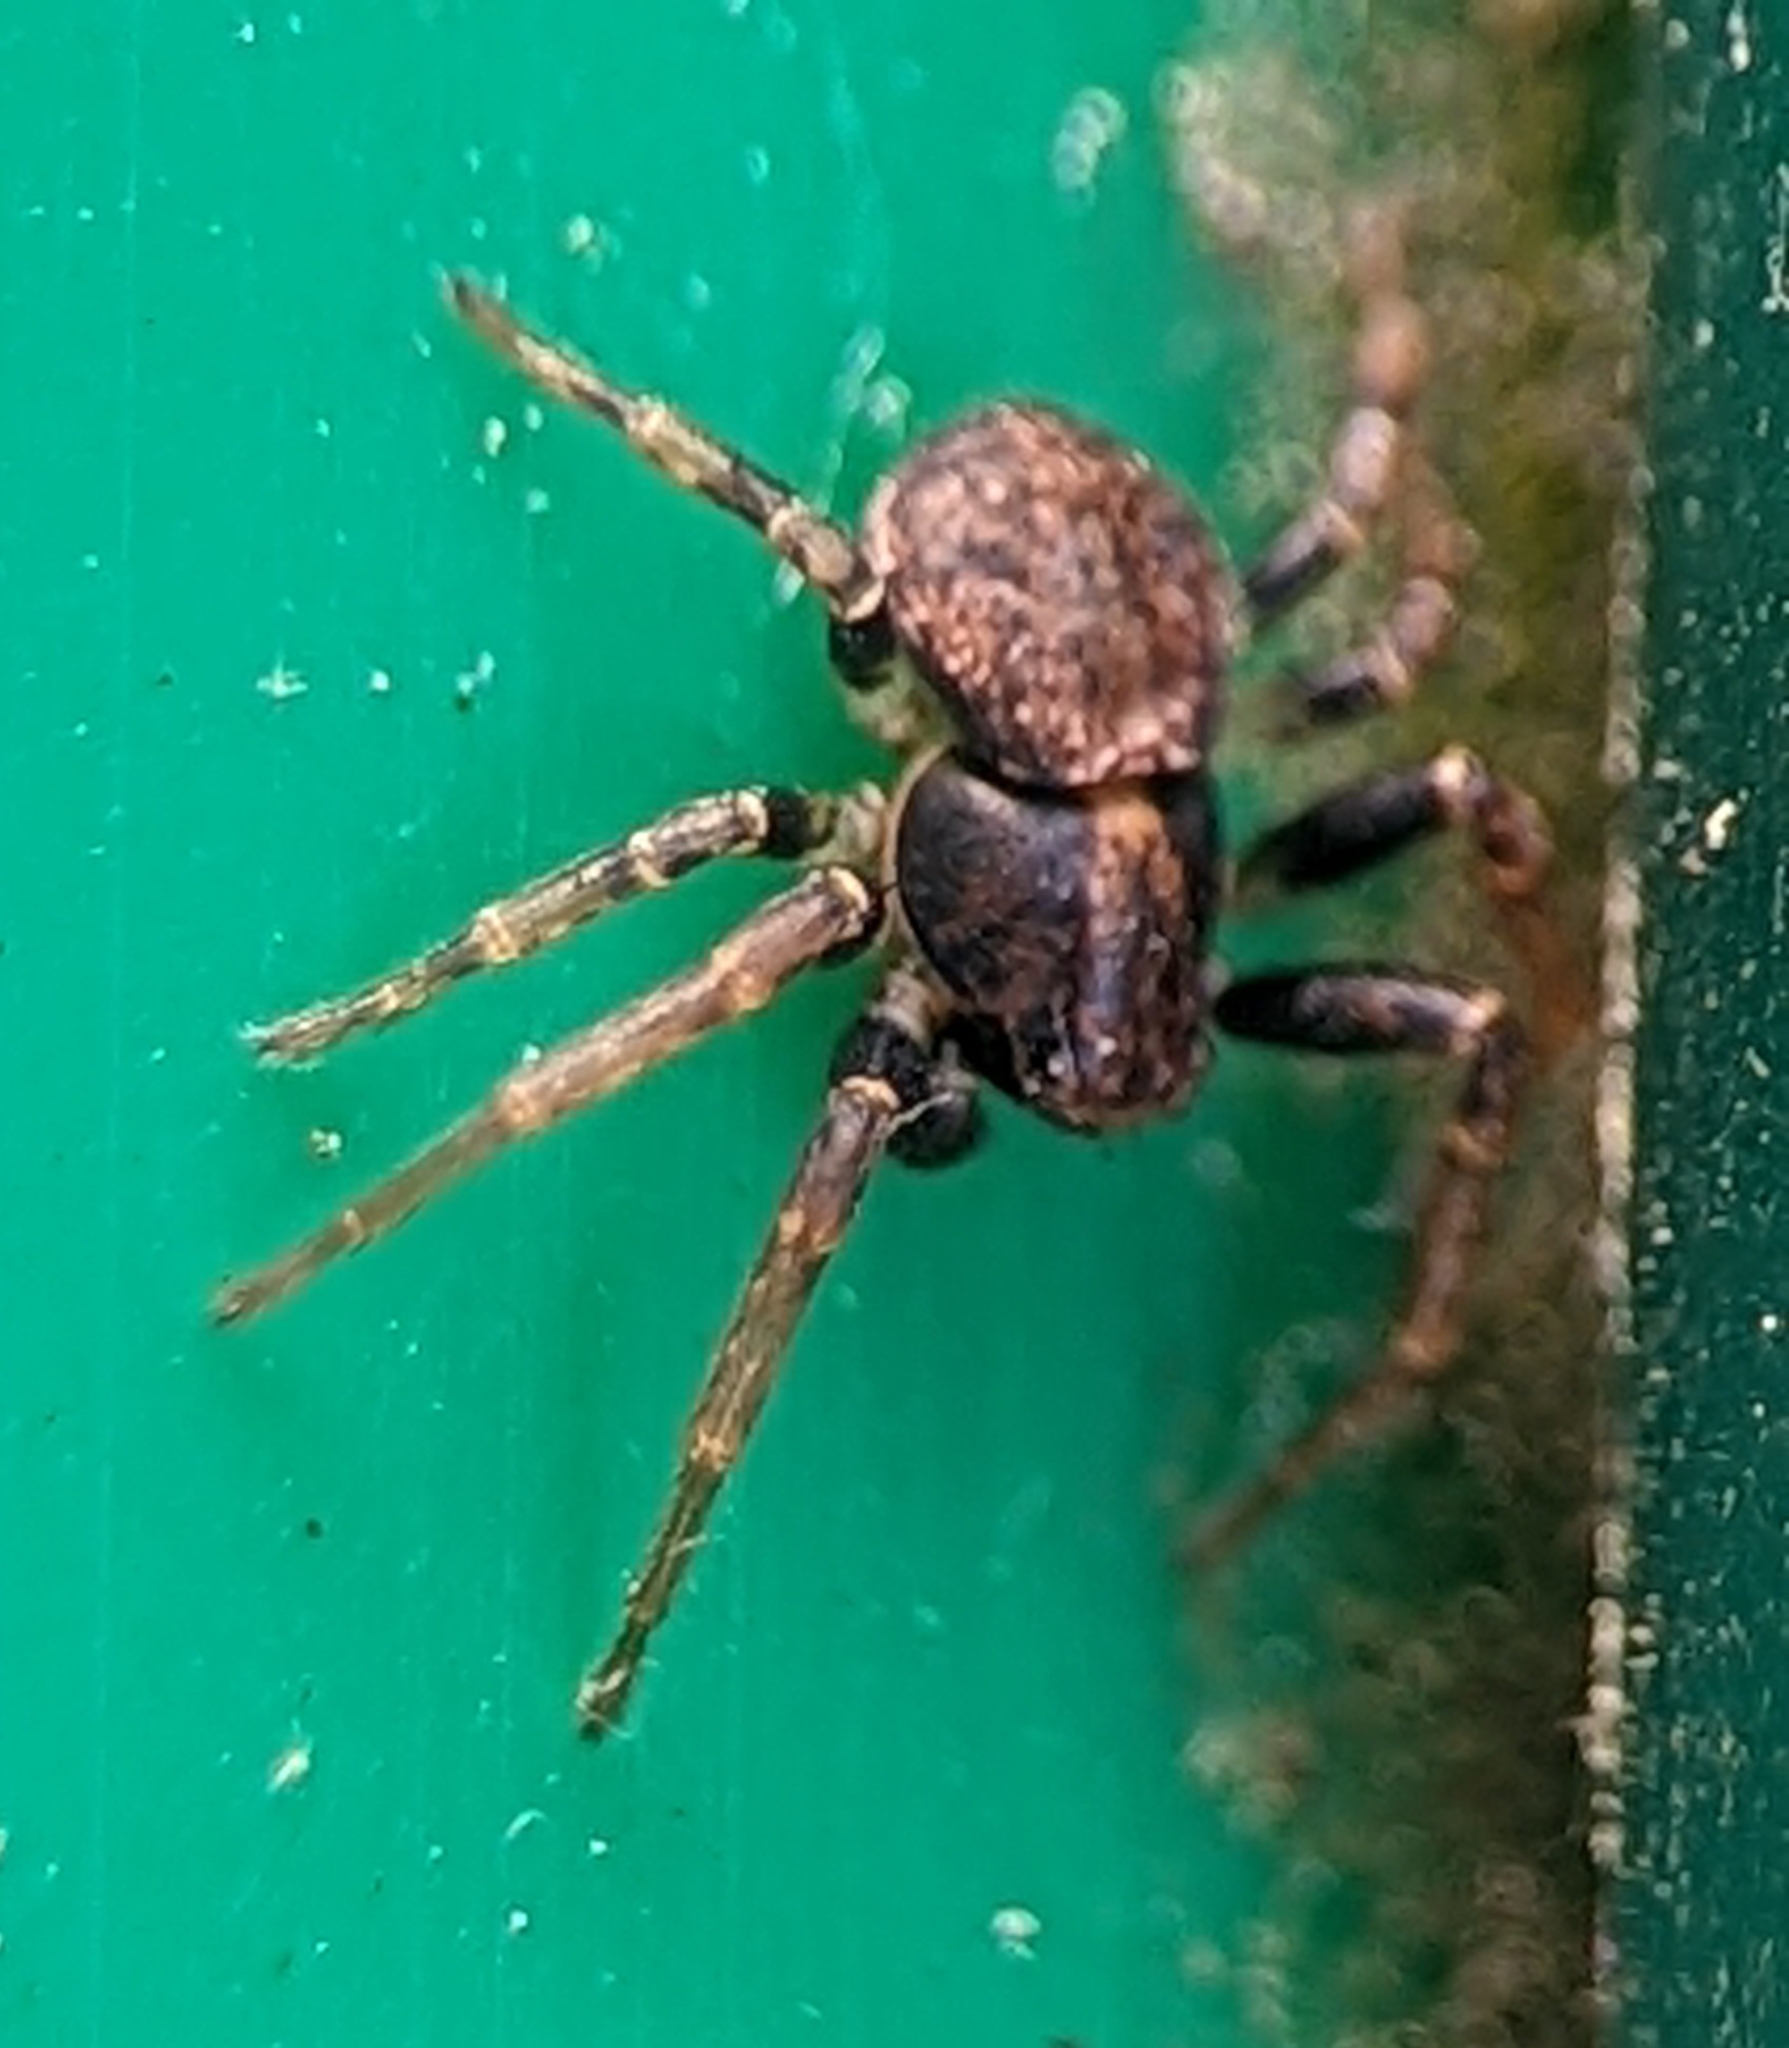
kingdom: Animalia
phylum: Arthropoda
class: Arachnida
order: Araneae
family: Thomisidae
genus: Ozyptila
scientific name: Ozyptila praticola
